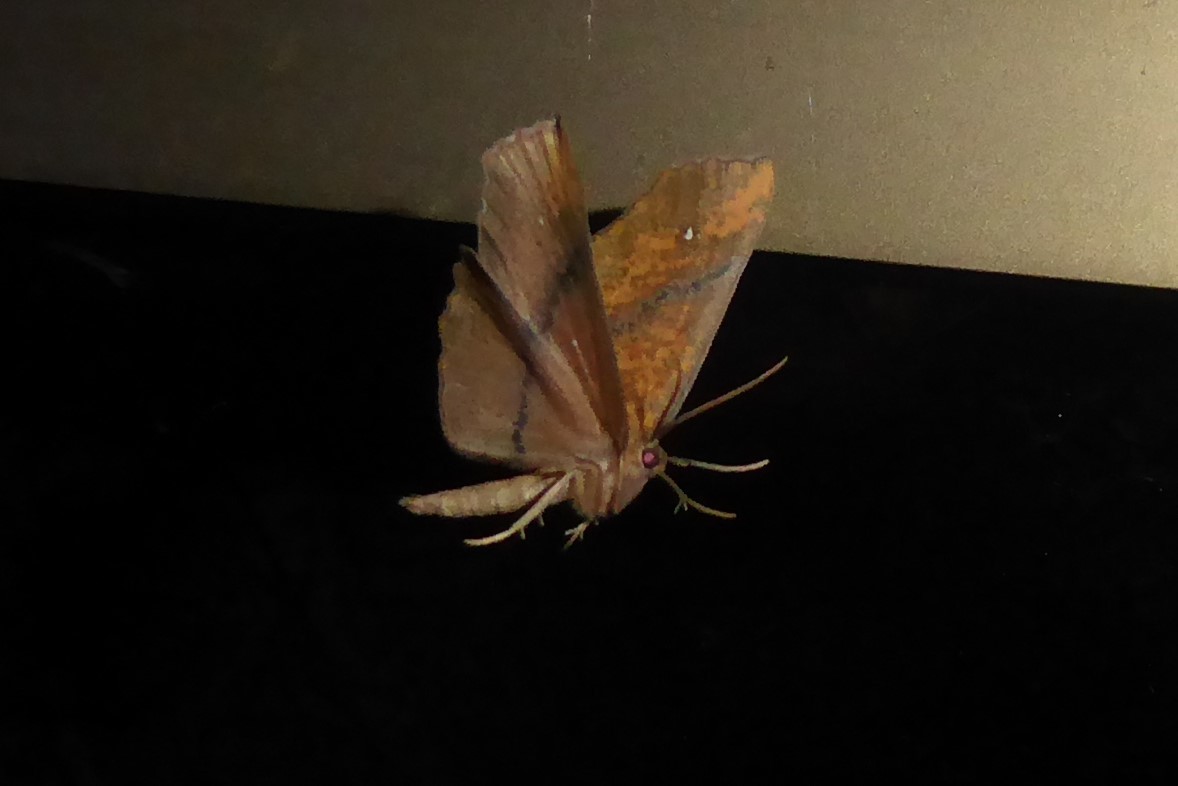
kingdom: Animalia
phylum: Arthropoda
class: Insecta
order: Lepidoptera
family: Geometridae
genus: Xyridacma
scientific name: Xyridacma ustaria
